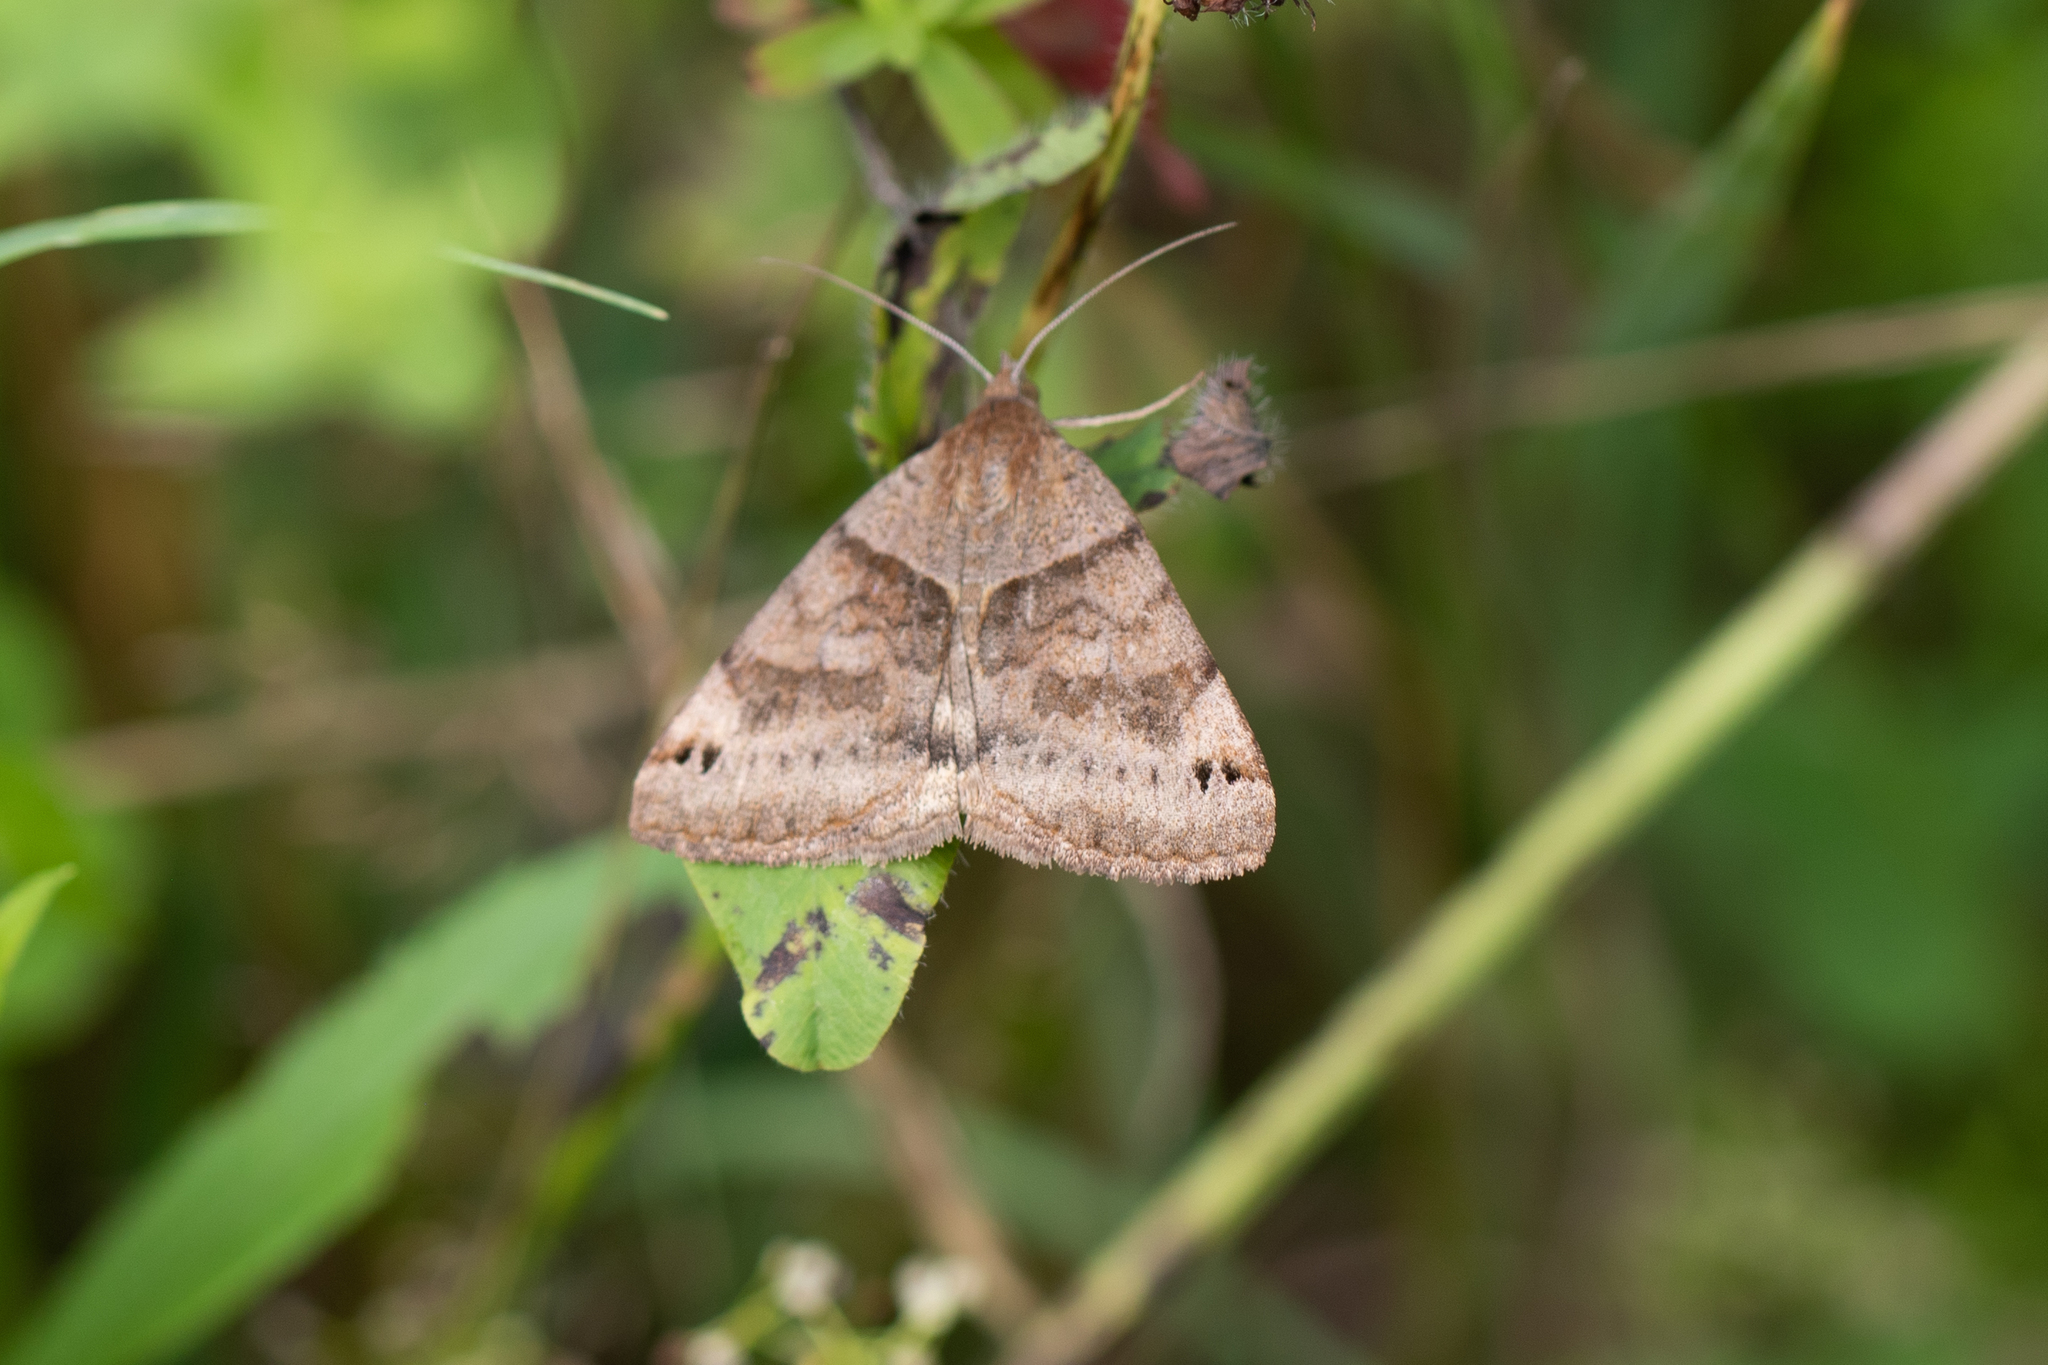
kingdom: Animalia
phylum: Arthropoda
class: Insecta
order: Lepidoptera
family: Erebidae
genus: Caenurgina
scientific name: Caenurgina crassiuscula
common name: Double-barred
